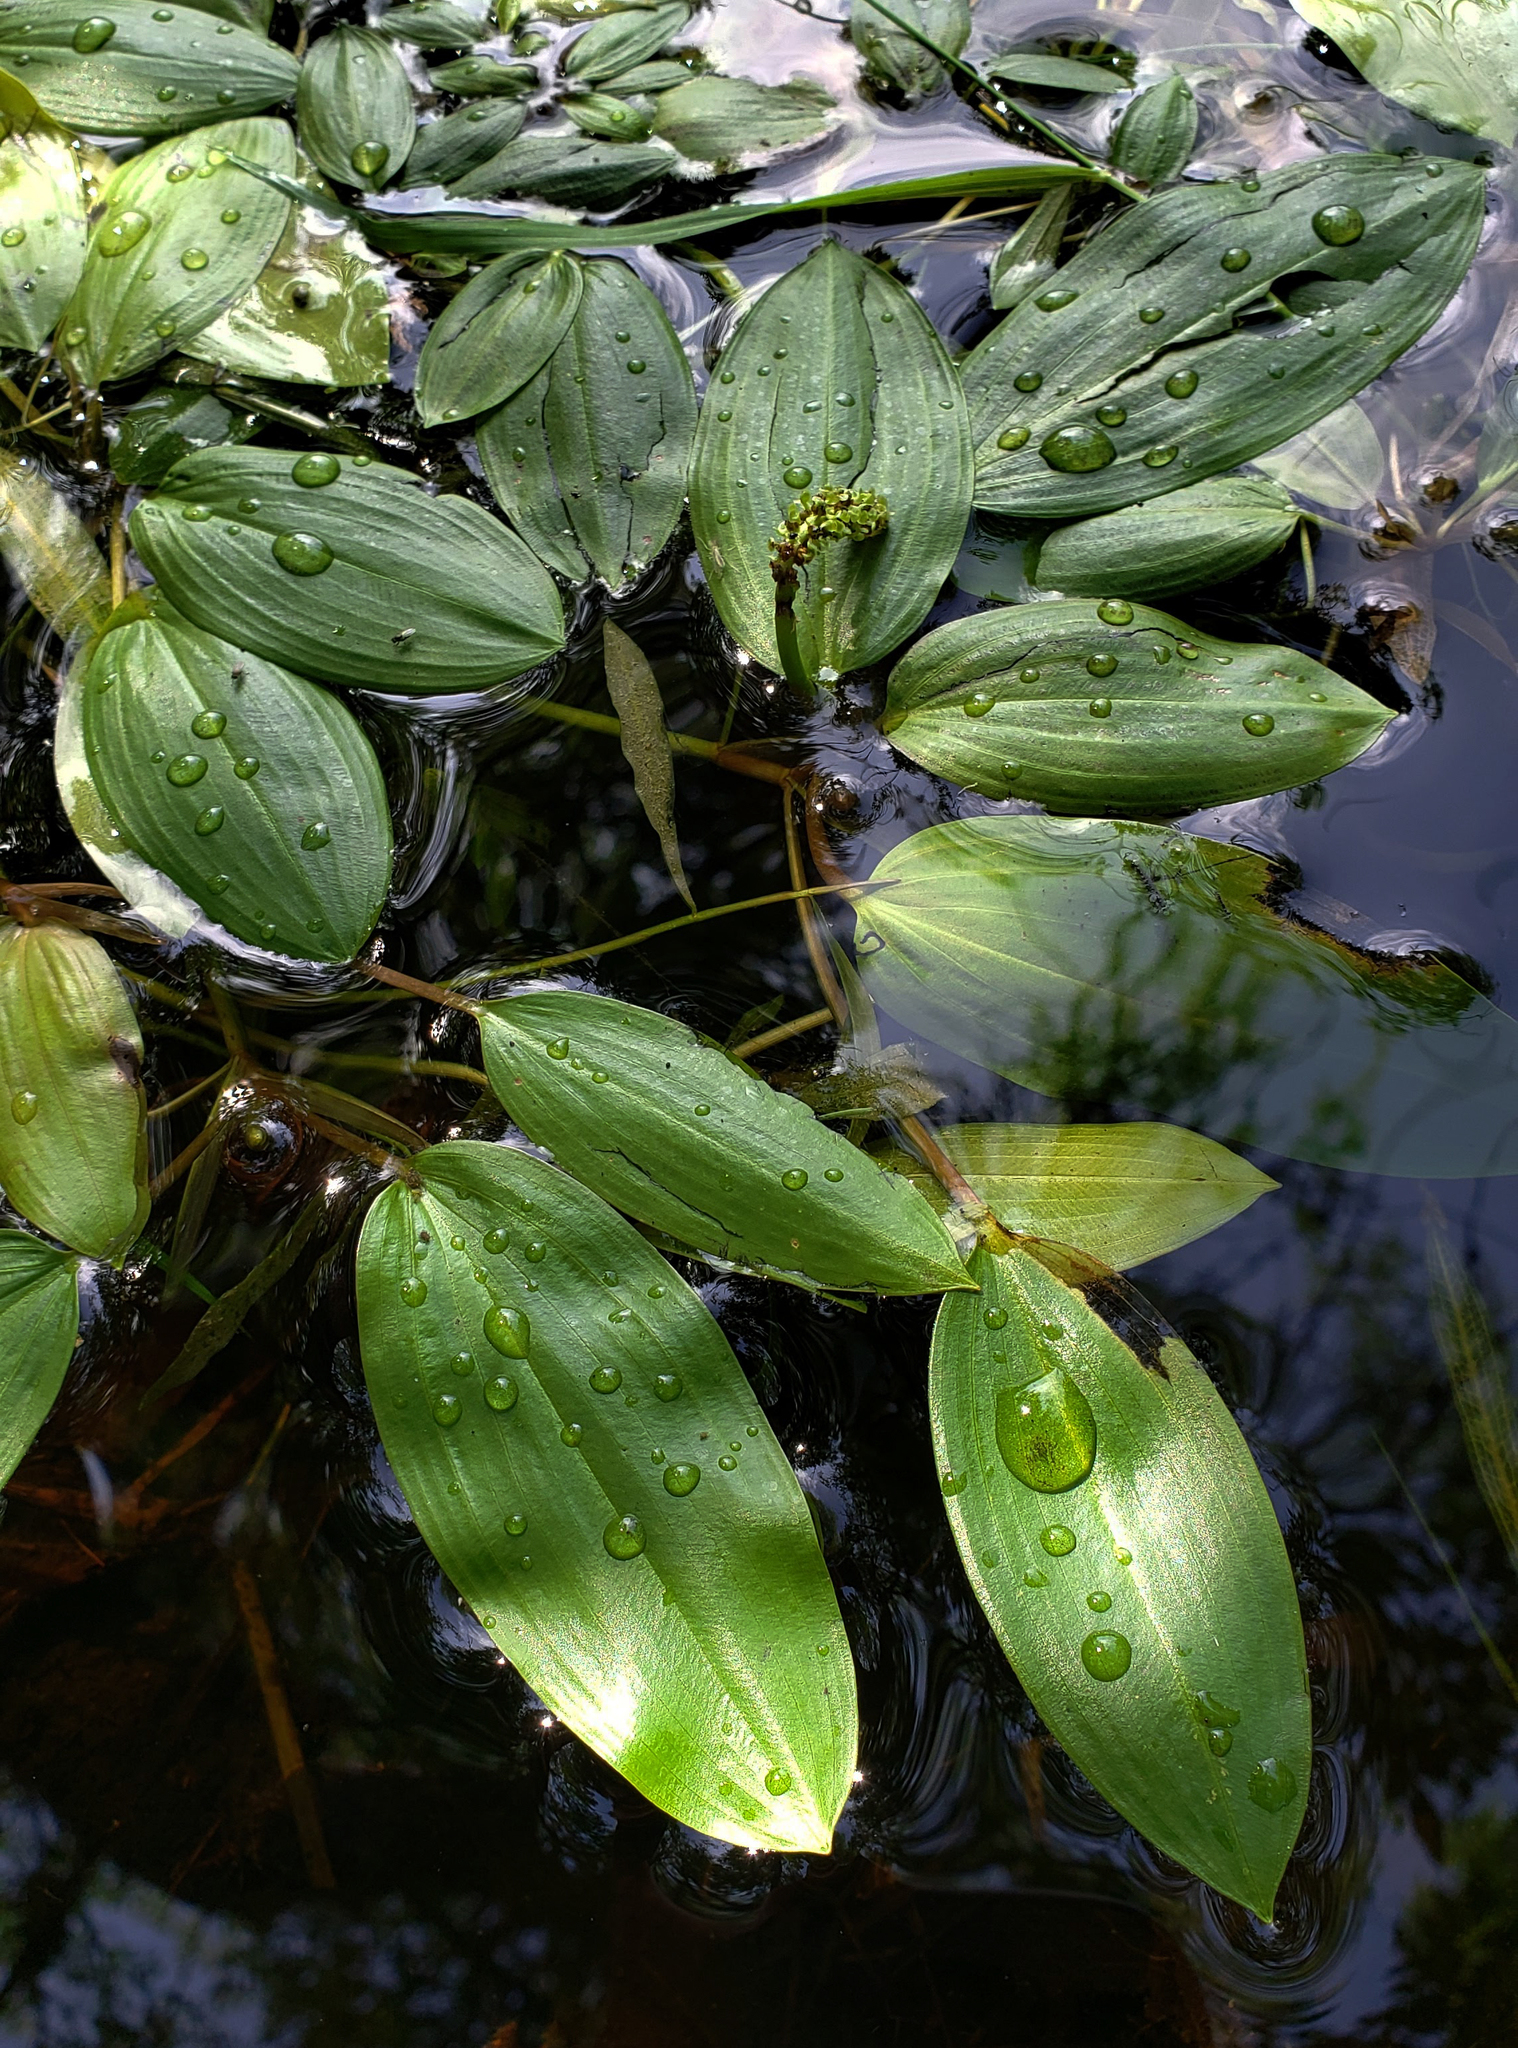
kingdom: Plantae
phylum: Tracheophyta
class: Liliopsida
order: Alismatales
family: Potamogetonaceae
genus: Potamogeton
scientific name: Potamogeton natans
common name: Broad-leaved pondweed
